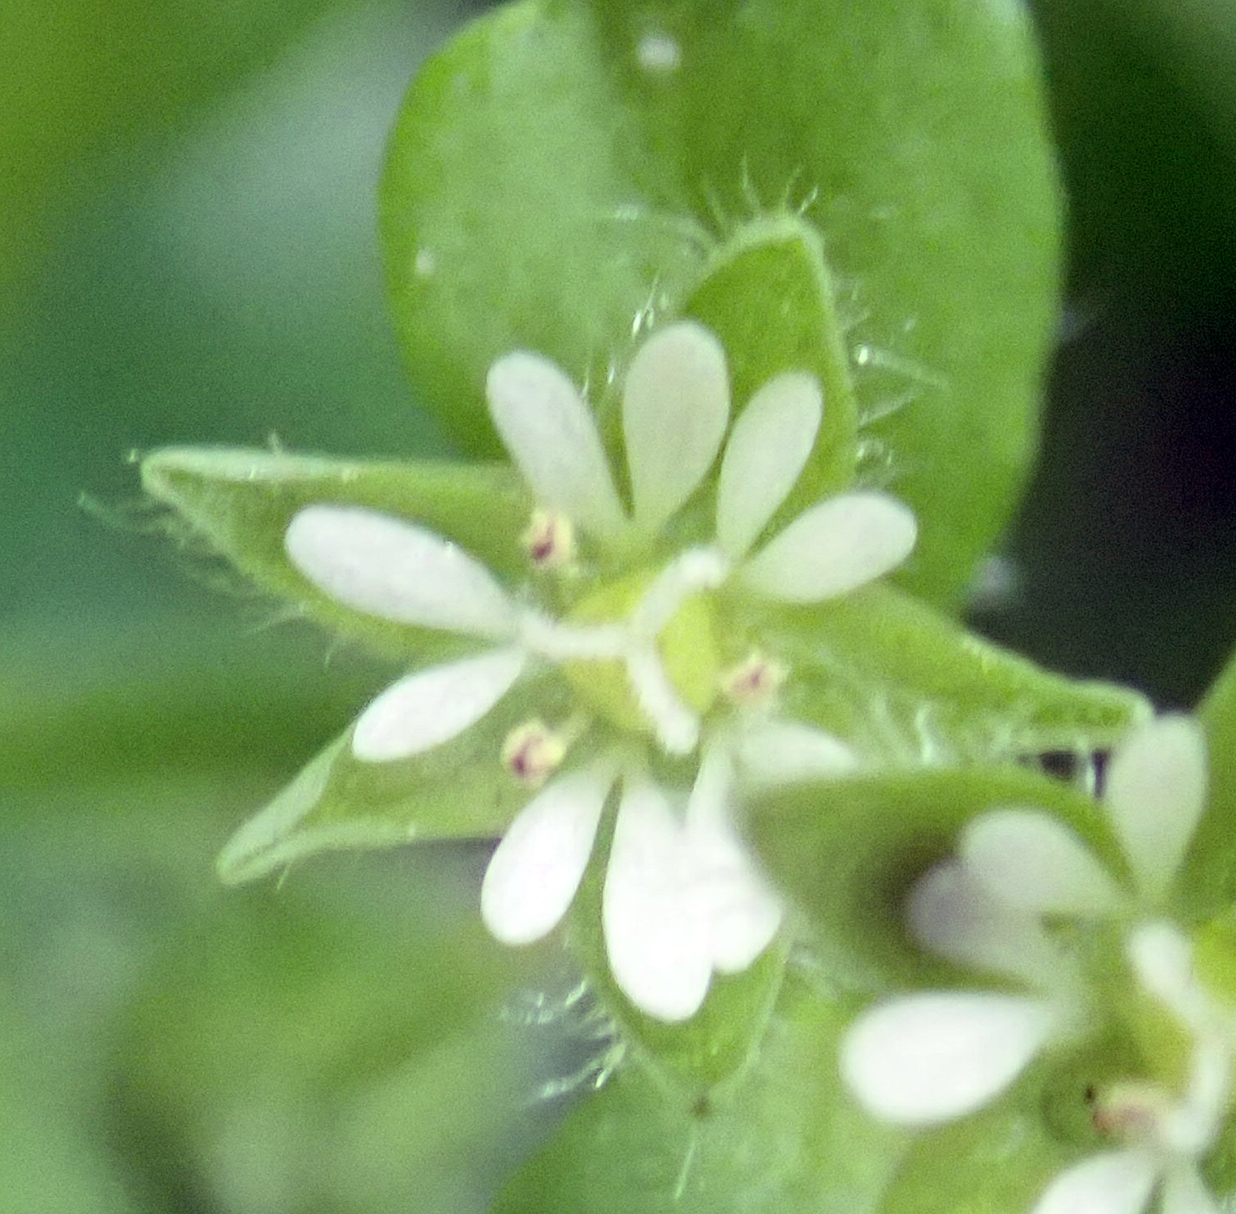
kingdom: Plantae
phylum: Tracheophyta
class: Magnoliopsida
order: Caryophyllales
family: Caryophyllaceae
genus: Stellaria
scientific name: Stellaria media
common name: Common chickweed
